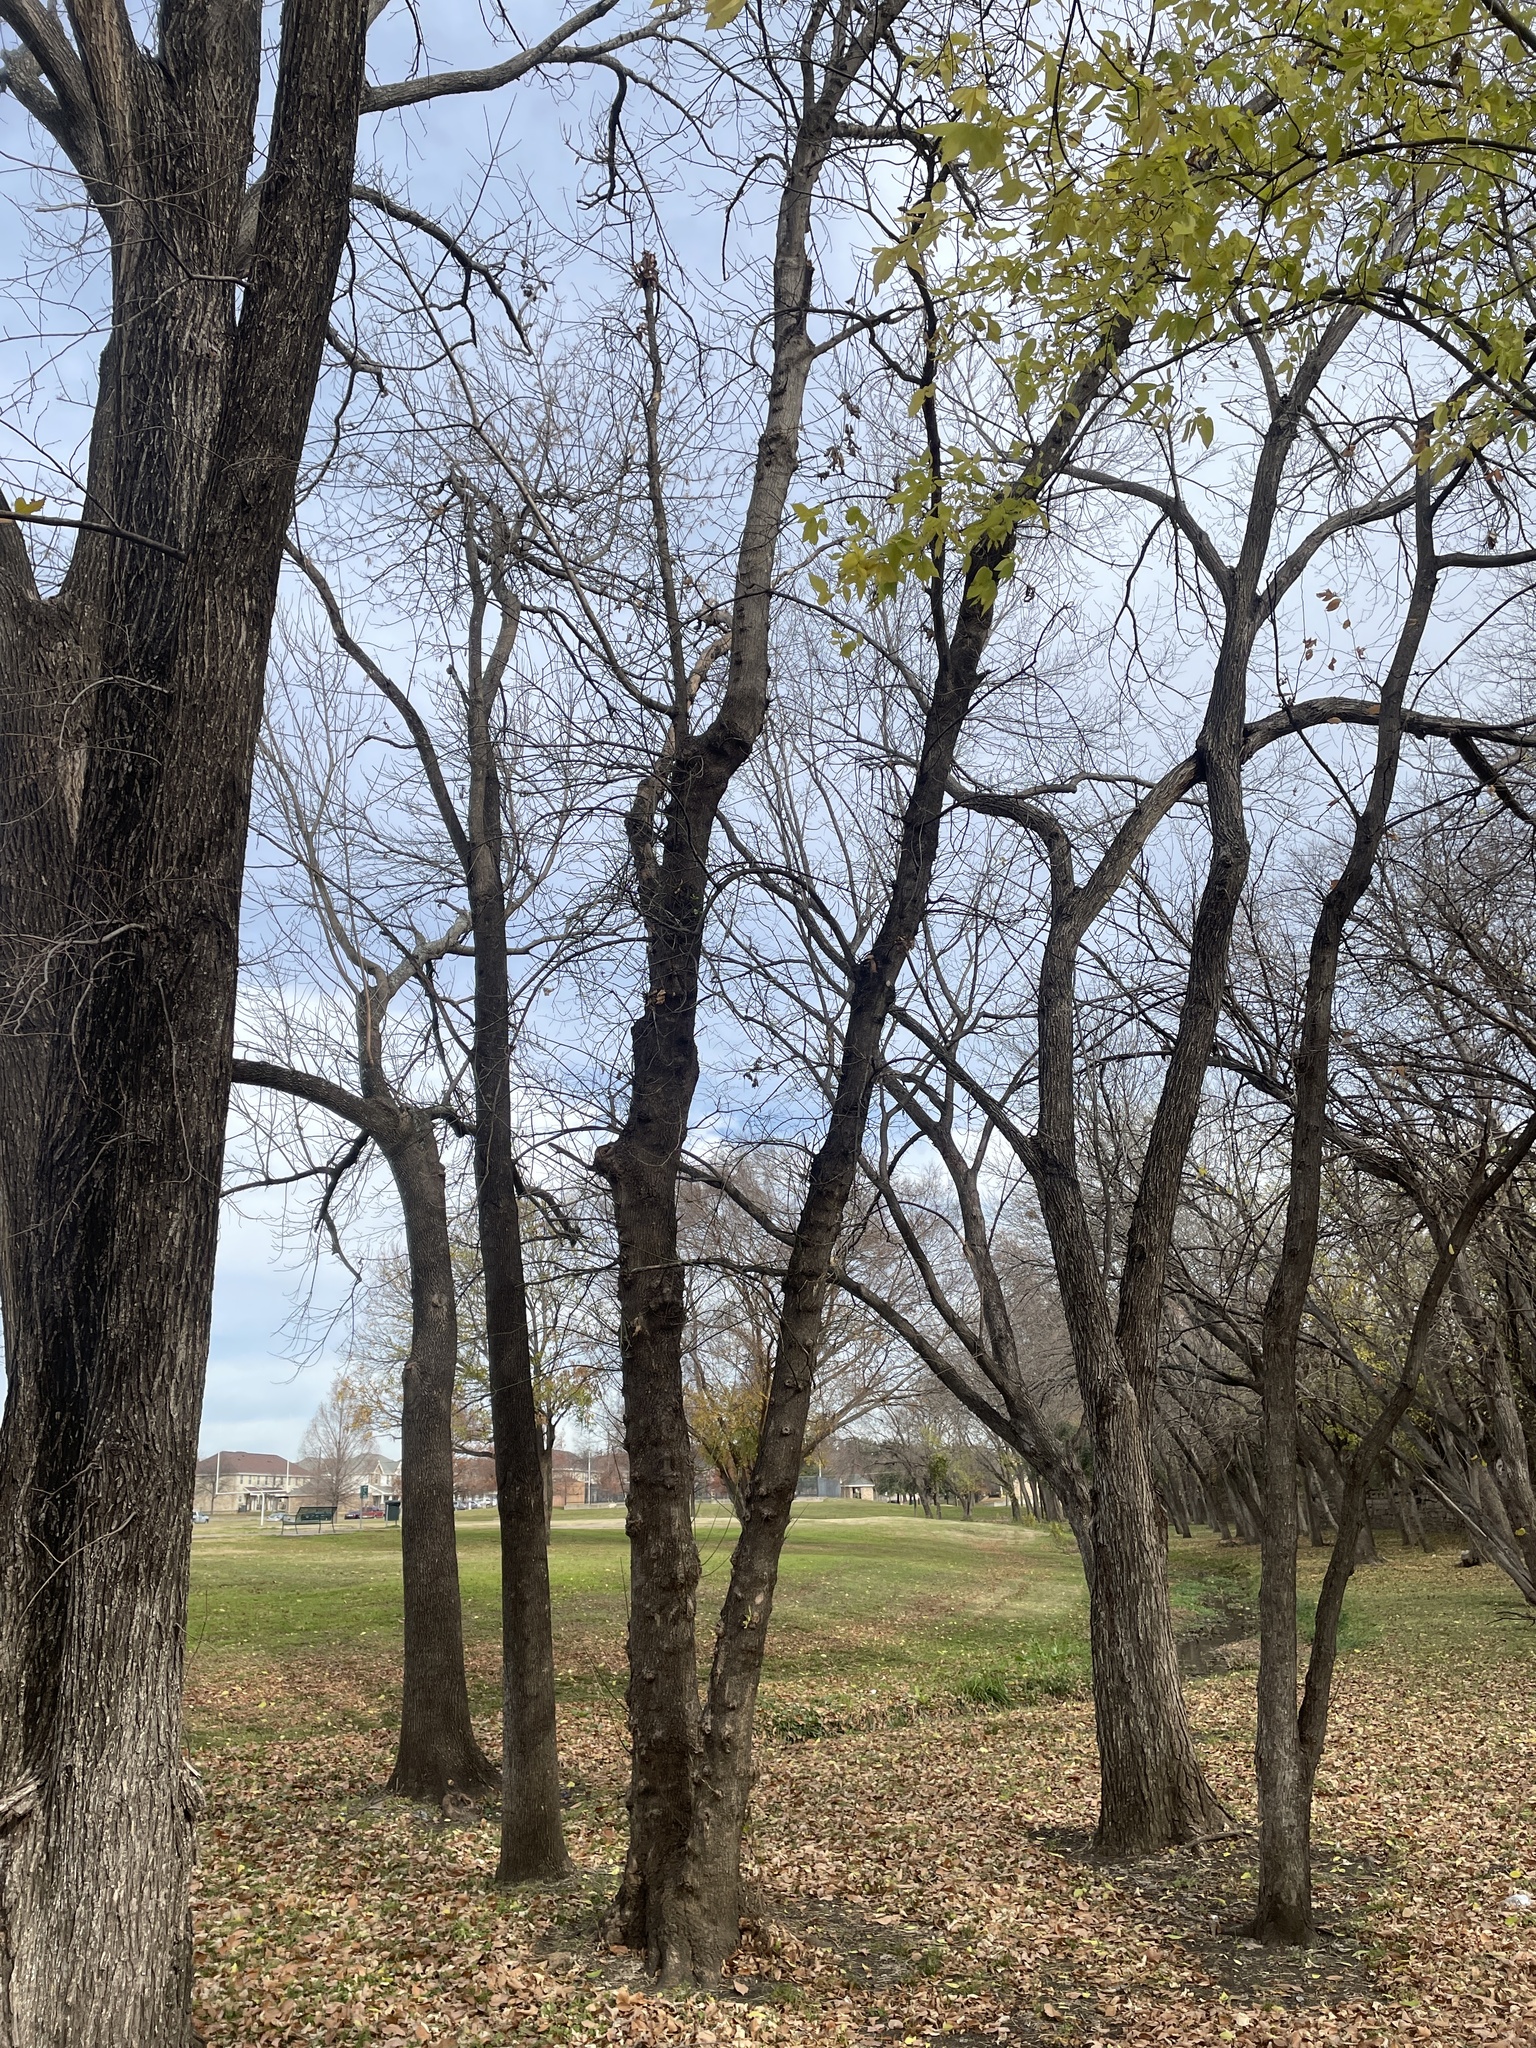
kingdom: Plantae
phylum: Tracheophyta
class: Magnoliopsida
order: Sapindales
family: Sapindaceae
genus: Acer
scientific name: Acer negundo
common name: Ashleaf maple
